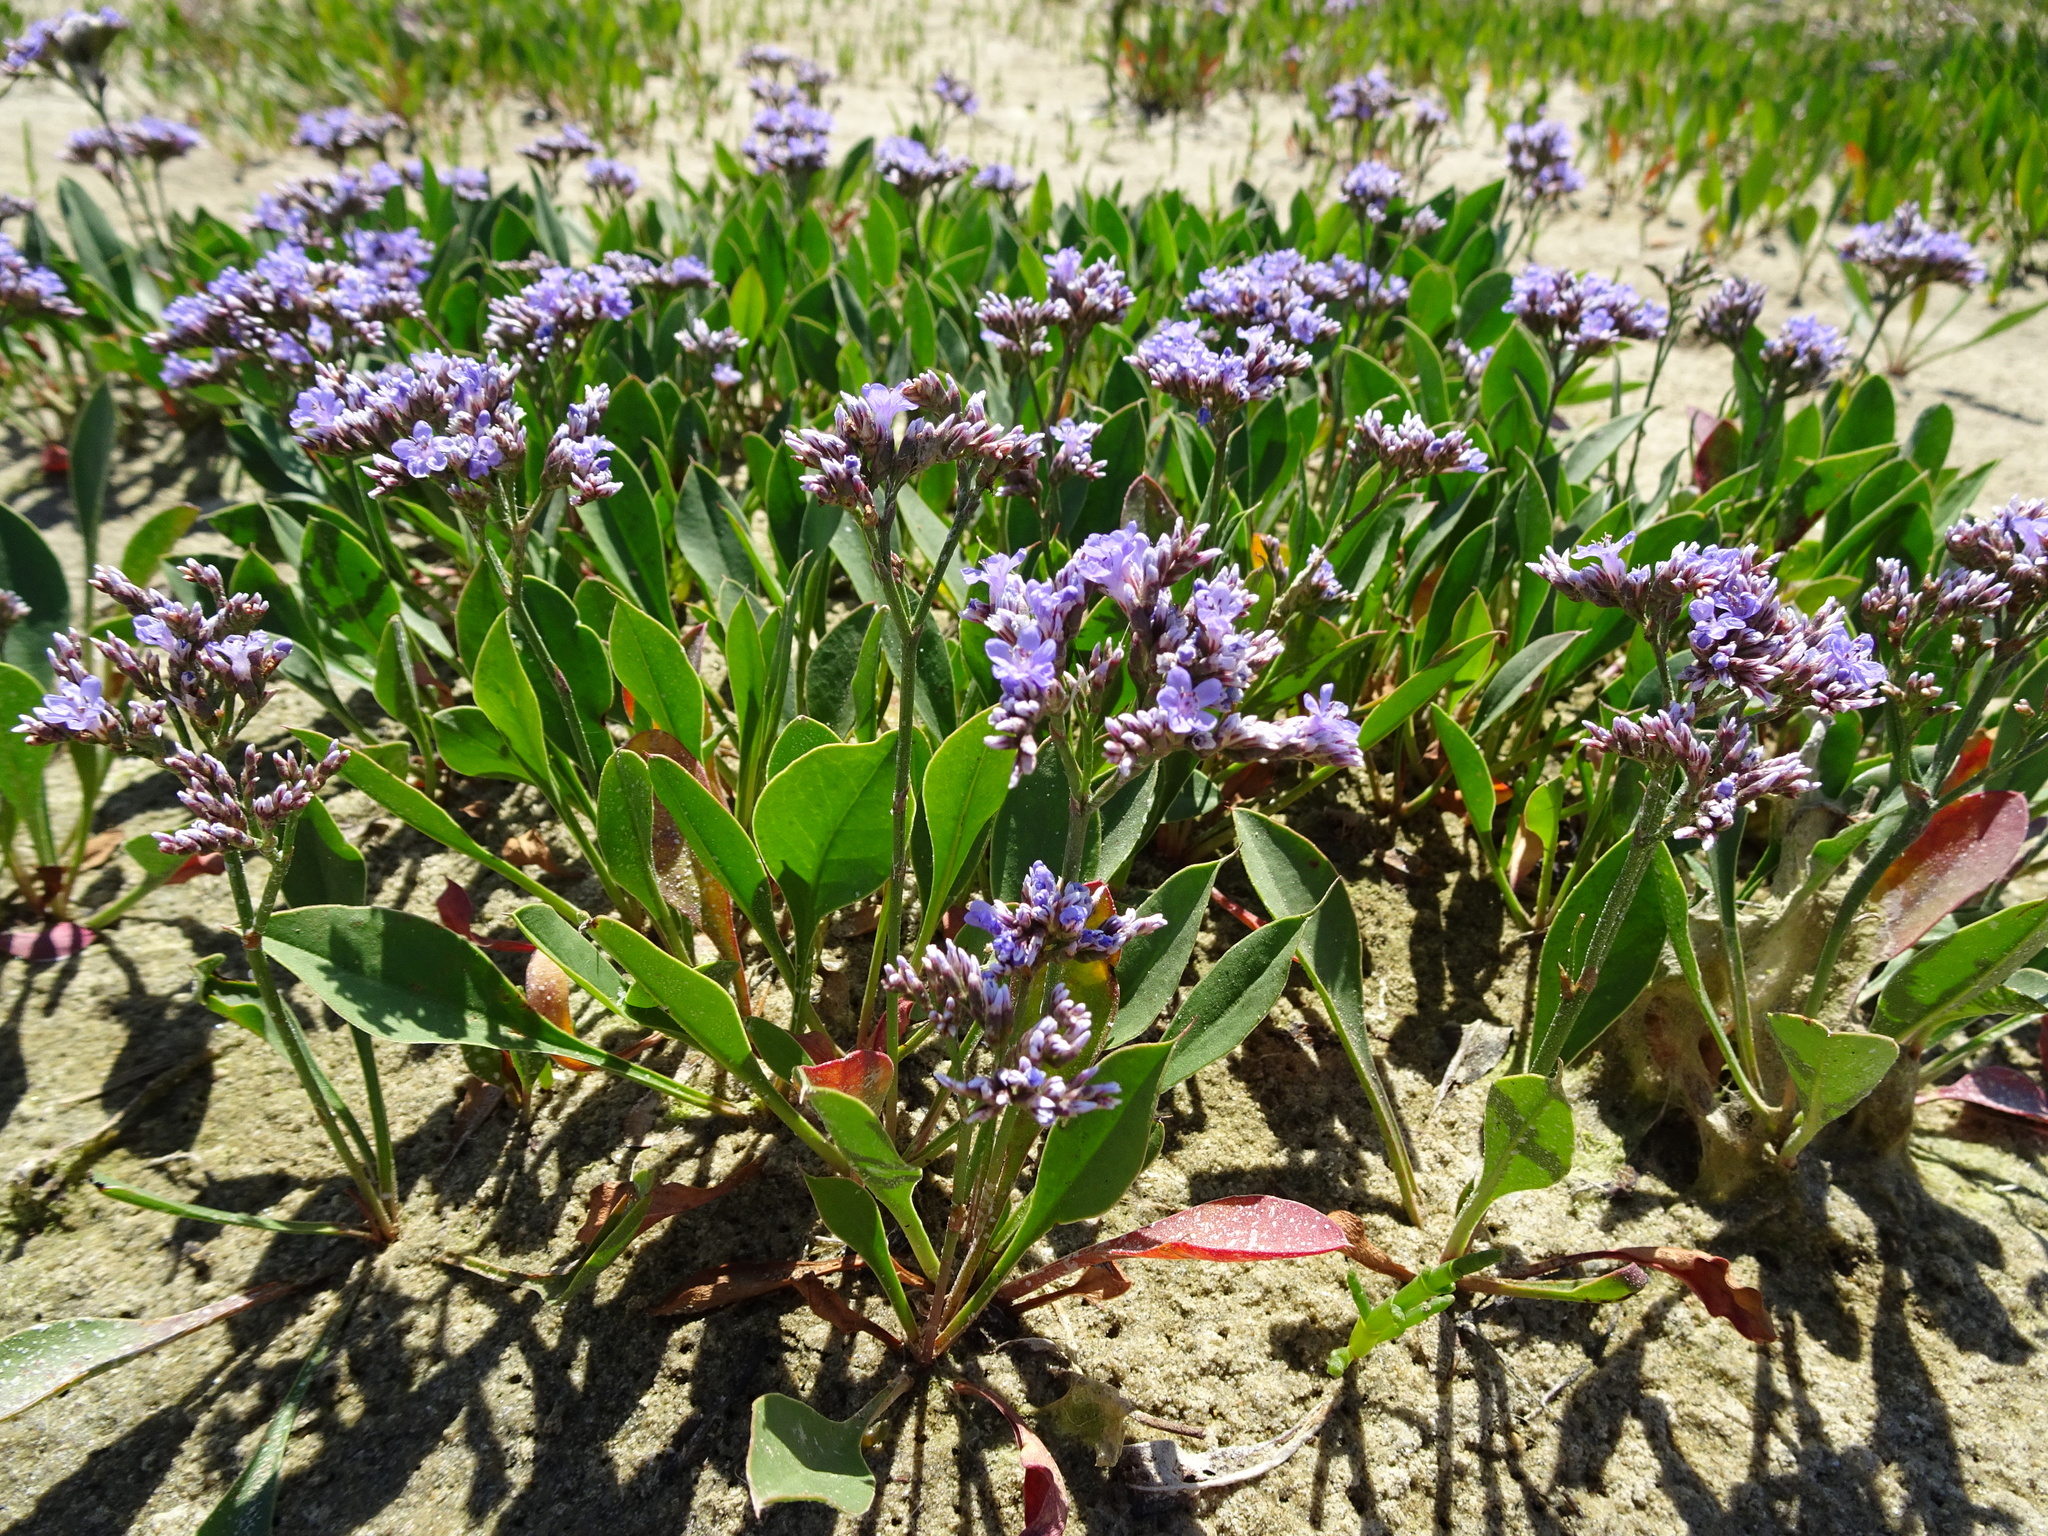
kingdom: Plantae
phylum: Tracheophyta
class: Magnoliopsida
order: Caryophyllales
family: Plumbaginaceae
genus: Limonium
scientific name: Limonium vulgare
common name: Common sea-lavender
